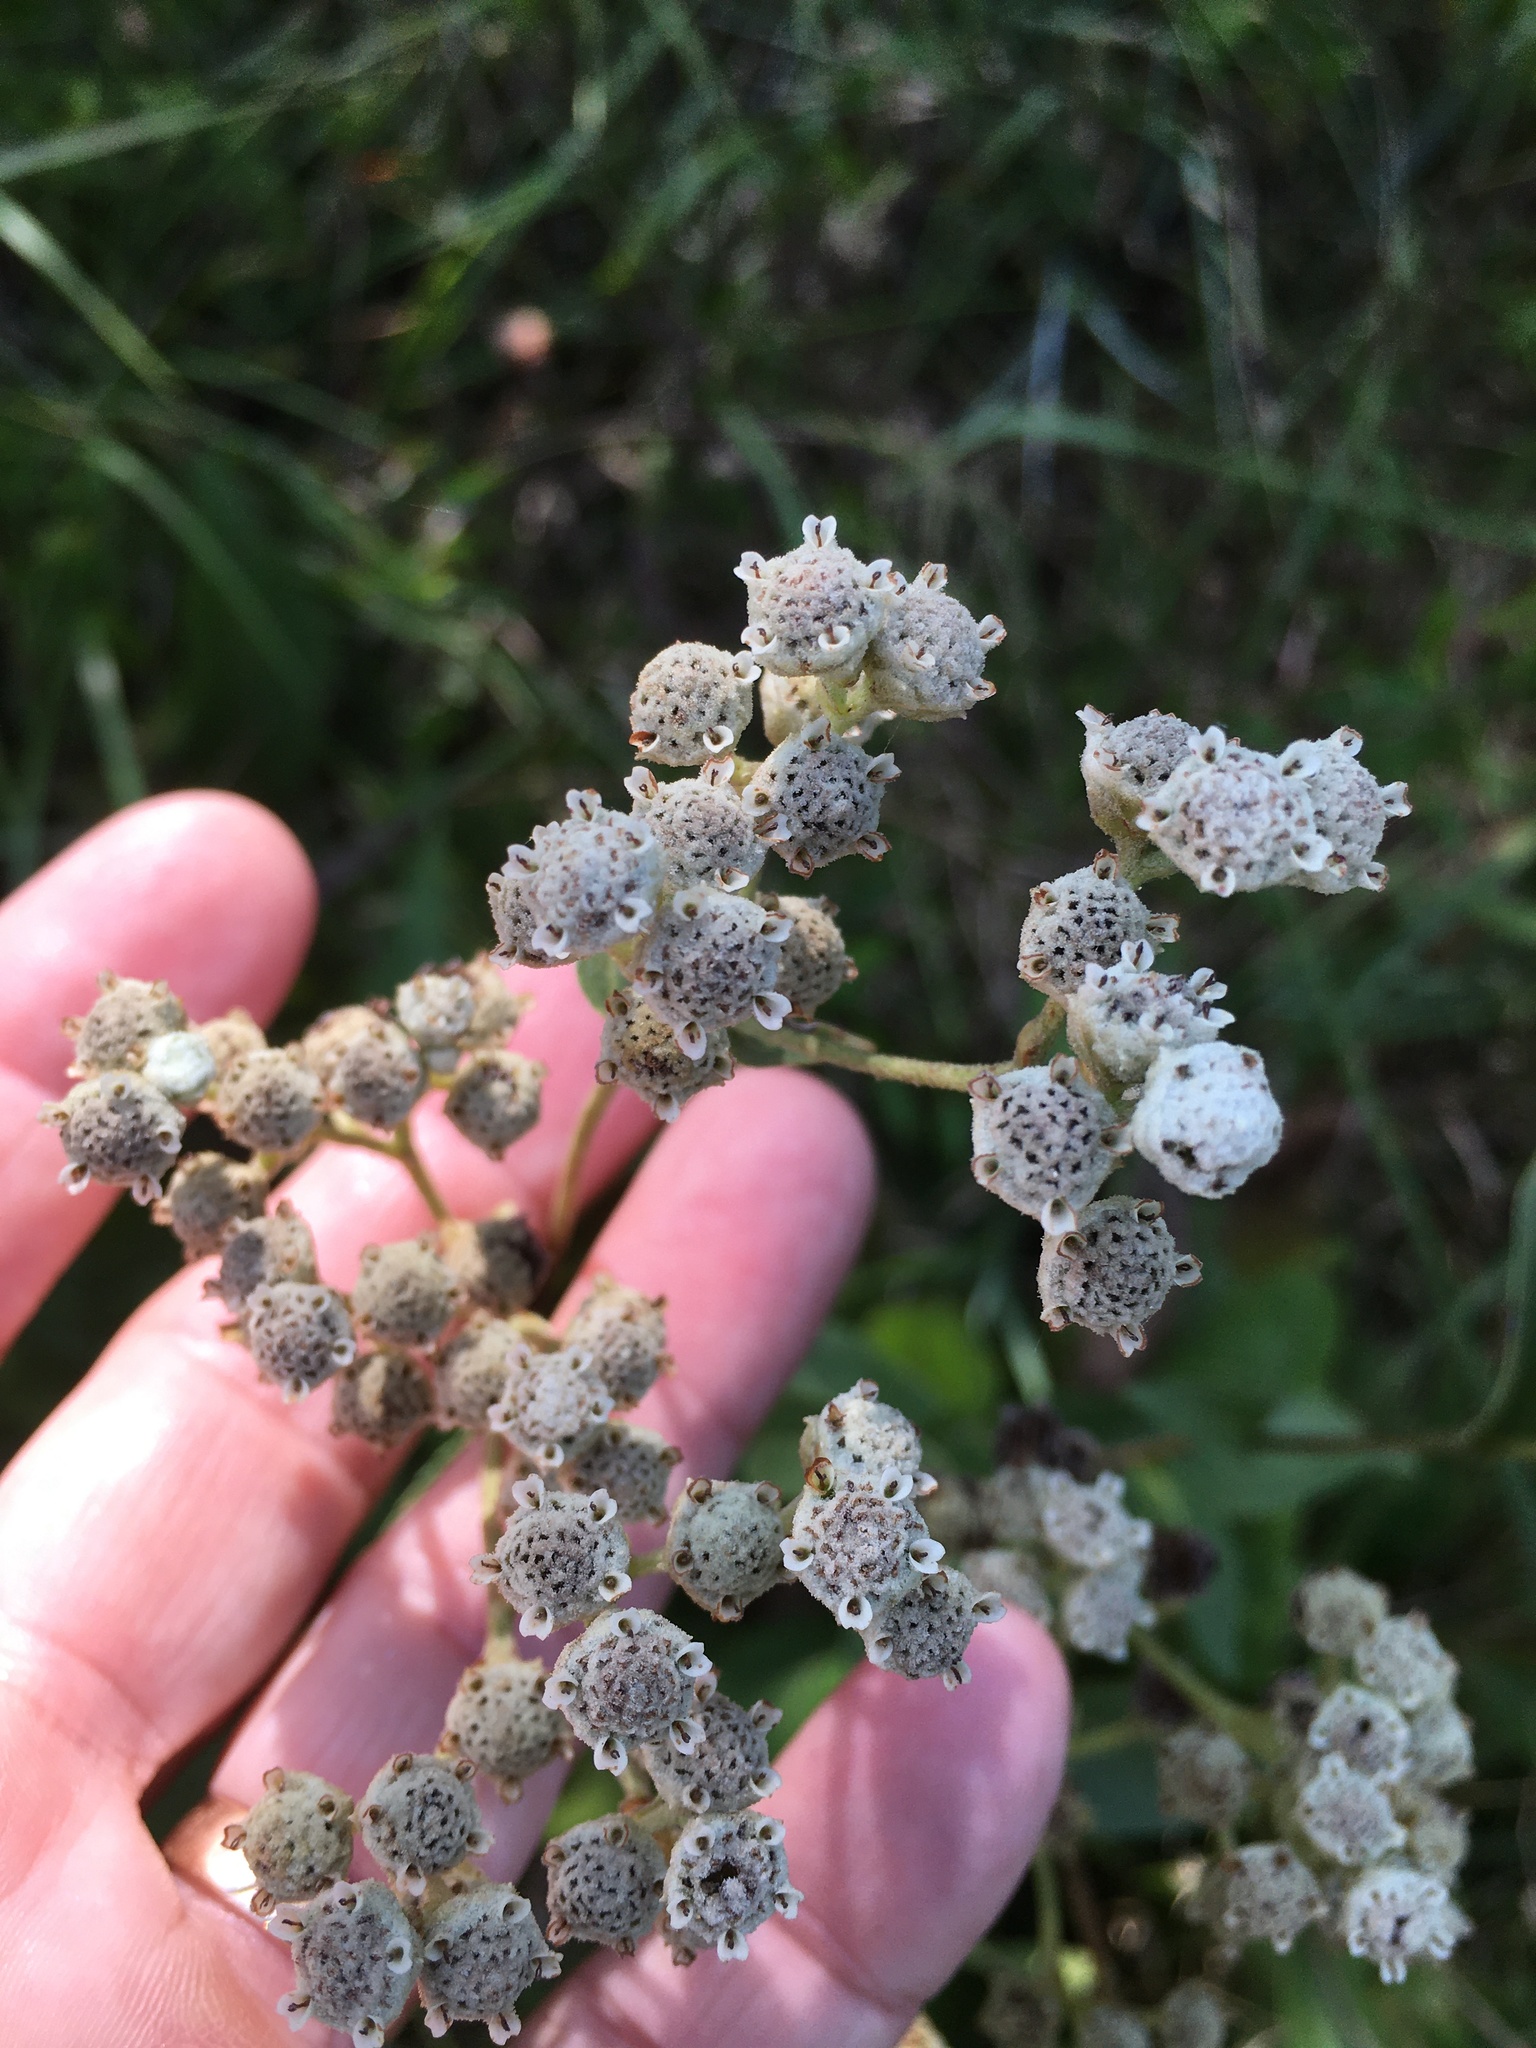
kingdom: Plantae
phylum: Tracheophyta
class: Magnoliopsida
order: Asterales
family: Asteraceae
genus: Parthenium
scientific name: Parthenium integrifolium
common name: American feverfew
